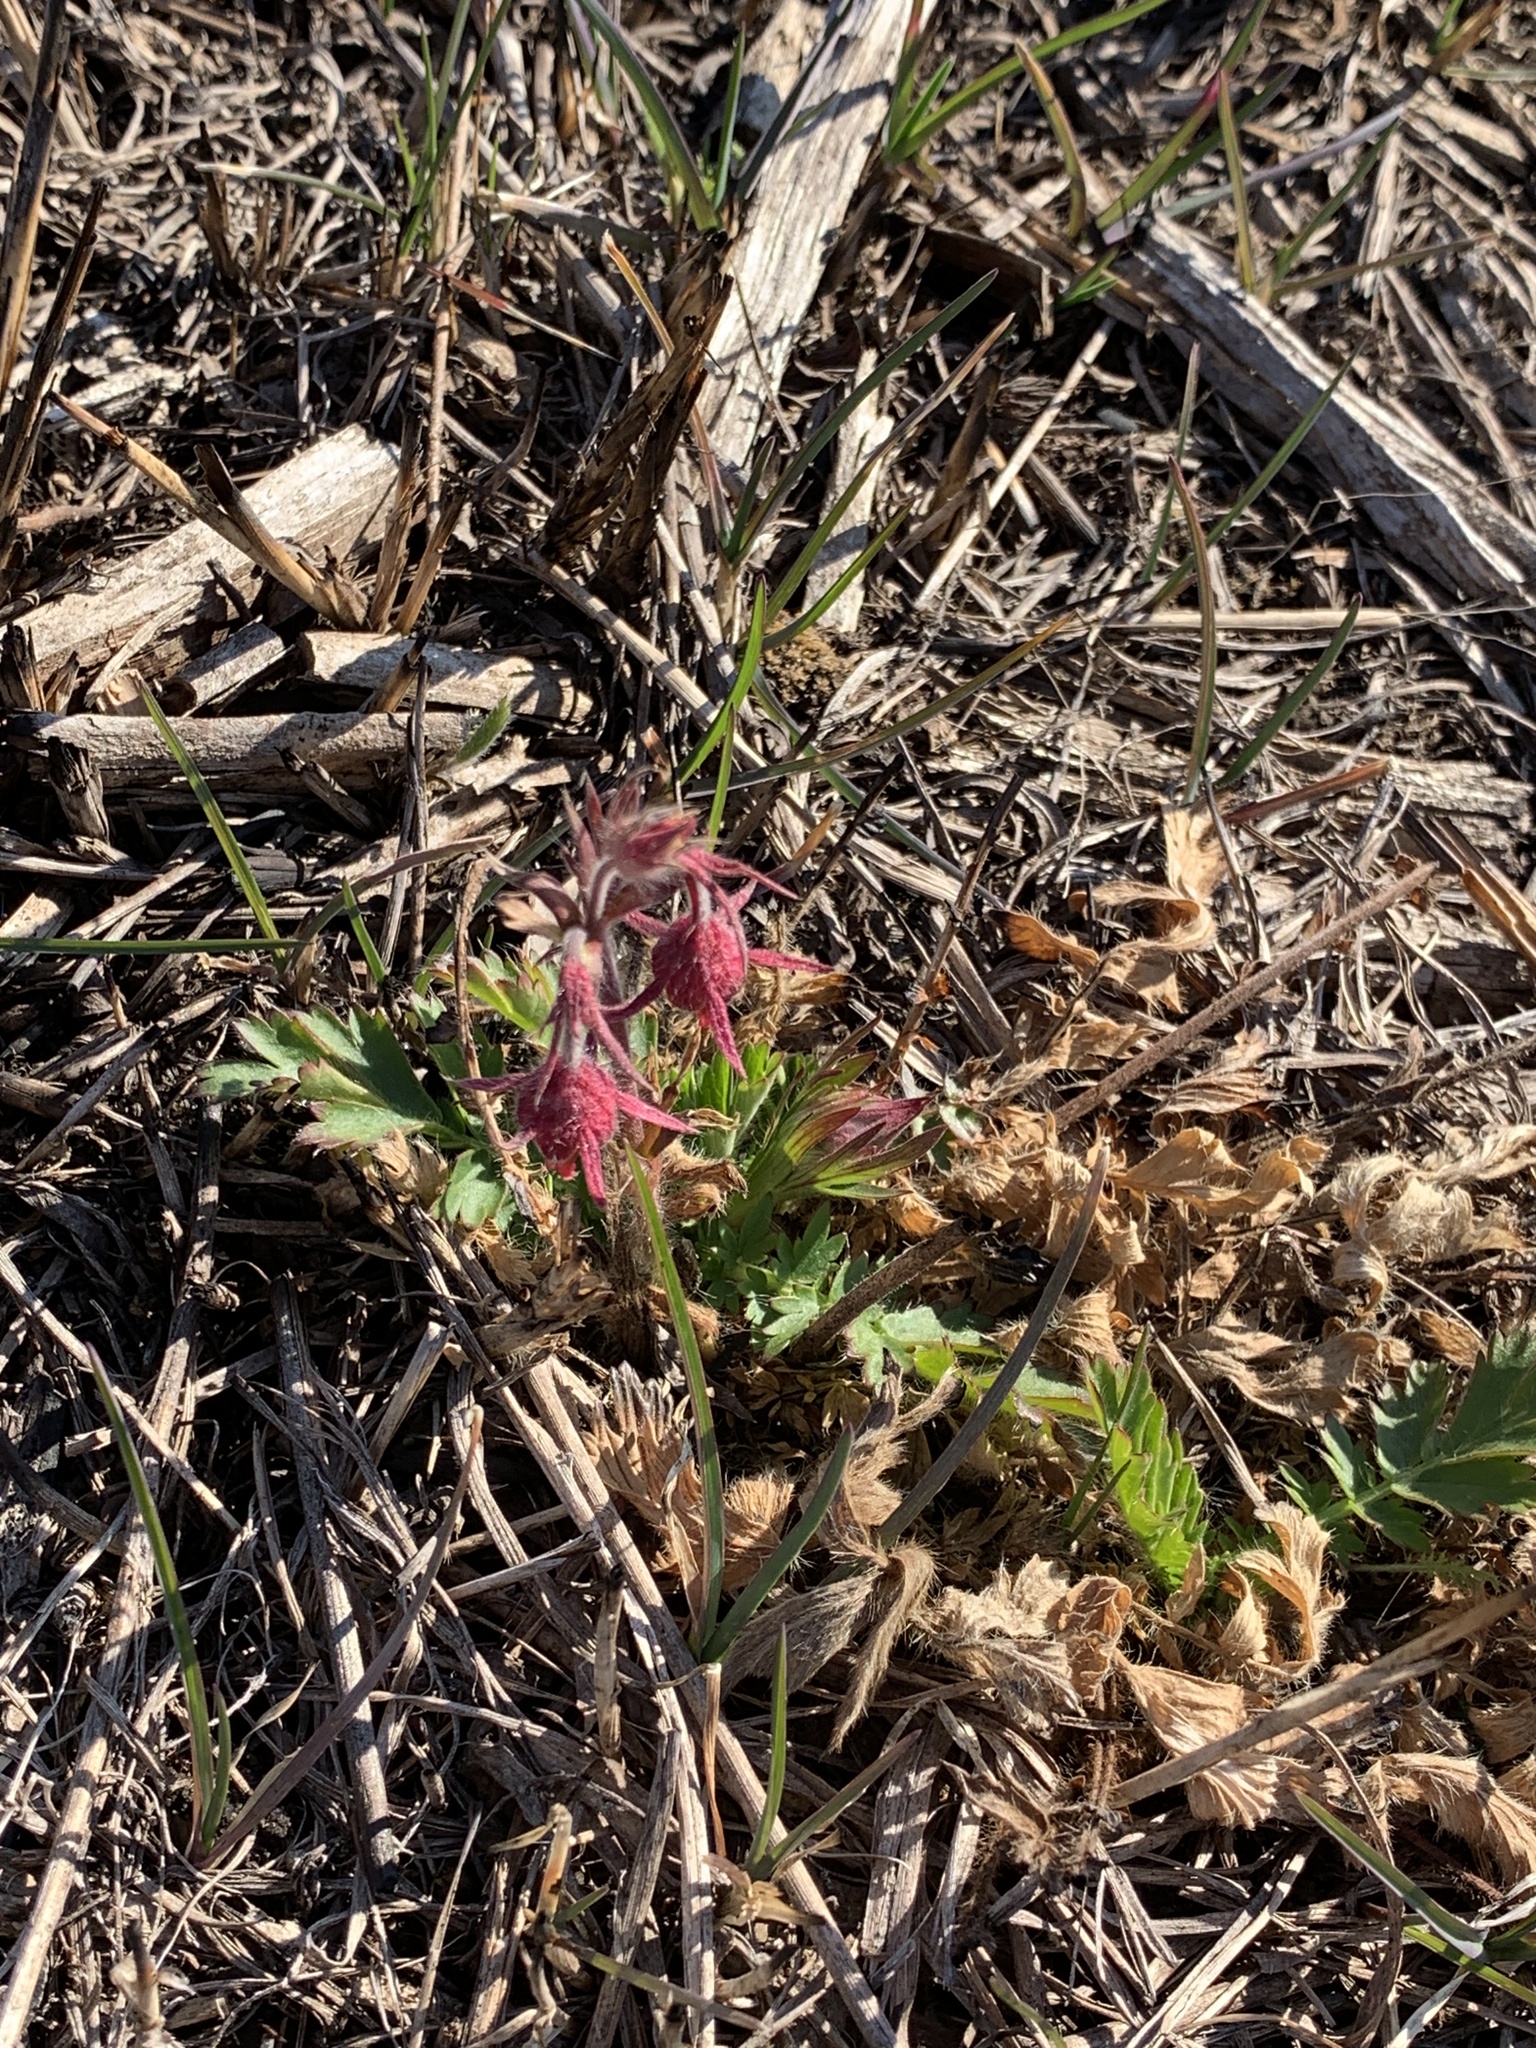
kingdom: Plantae
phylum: Tracheophyta
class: Magnoliopsida
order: Rosales
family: Rosaceae
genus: Geum
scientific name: Geum triflorum
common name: Old man's whiskers
